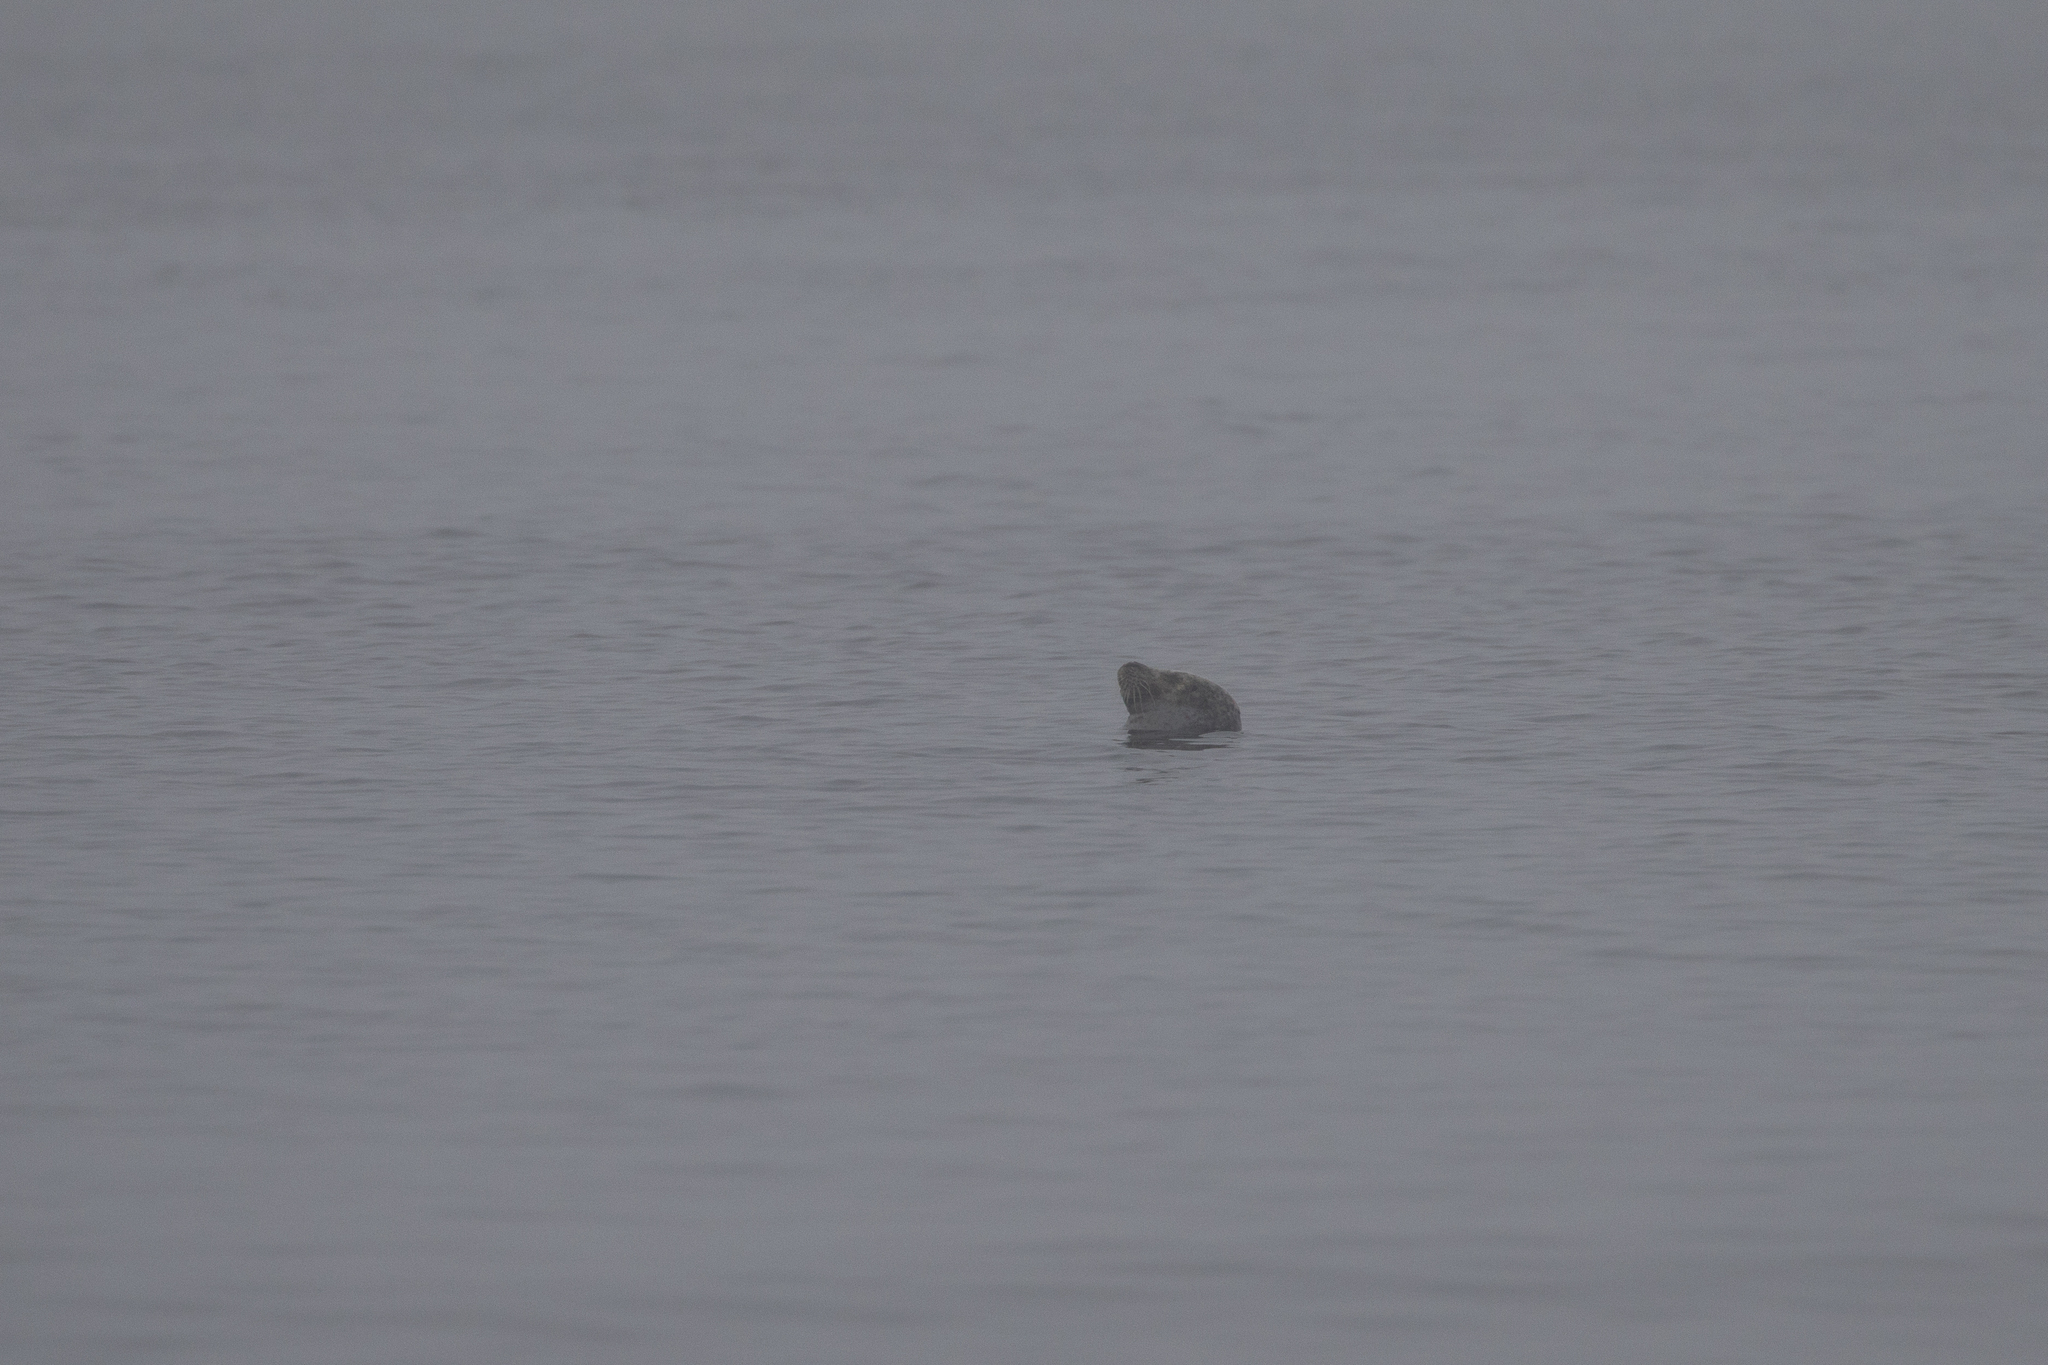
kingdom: Animalia
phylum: Chordata
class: Mammalia
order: Carnivora
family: Phocidae
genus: Phoca
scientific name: Phoca vitulina
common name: Harbor seal
